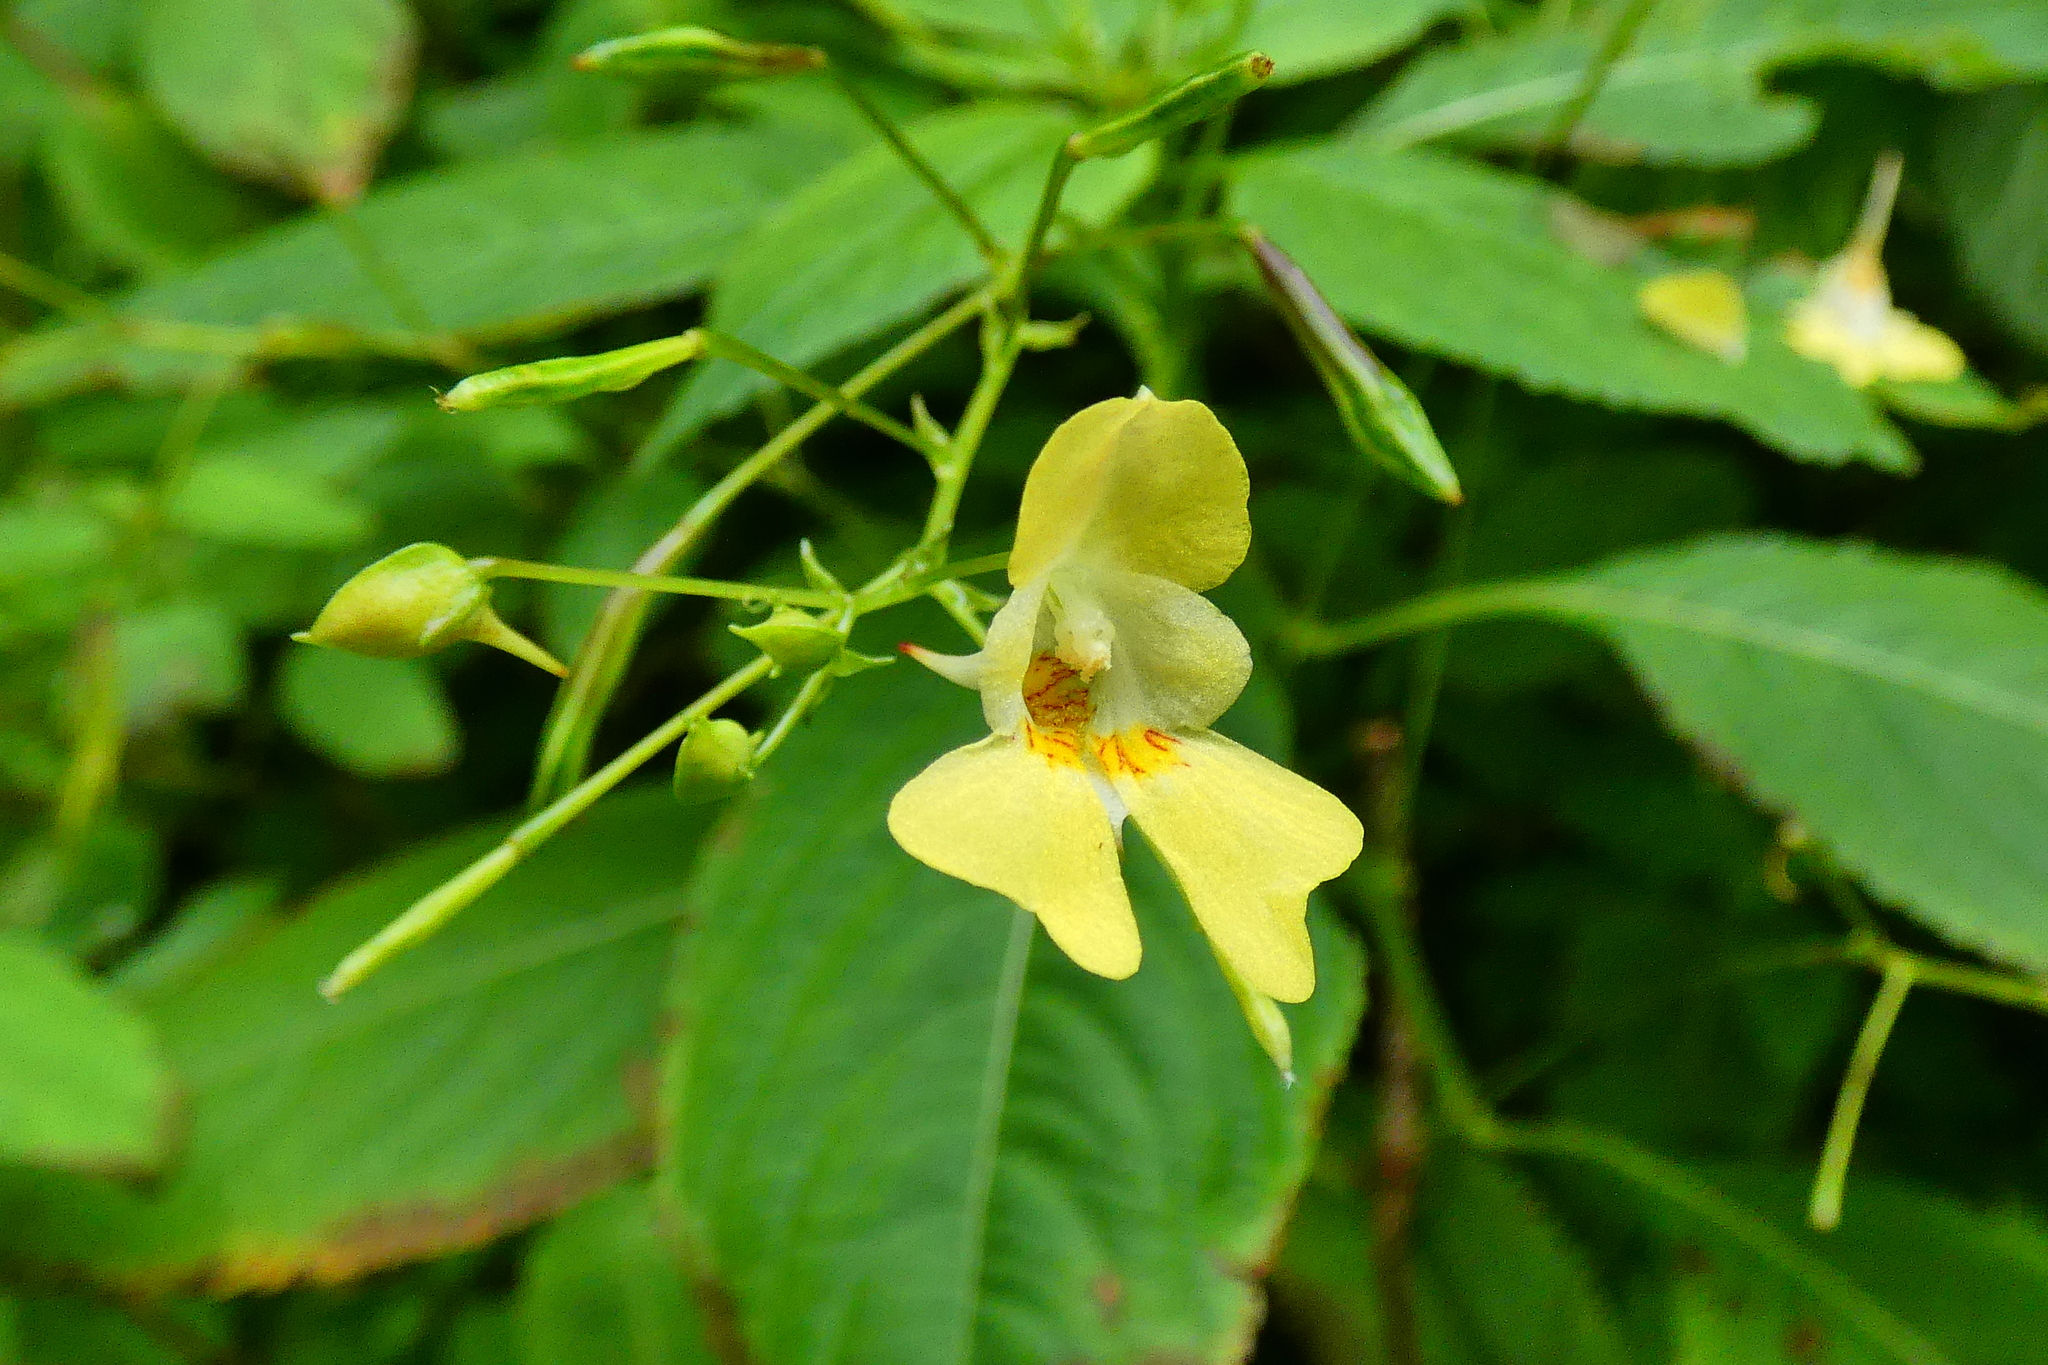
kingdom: Plantae
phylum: Tracheophyta
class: Magnoliopsida
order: Ericales
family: Balsaminaceae
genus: Impatiens
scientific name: Impatiens parviflora
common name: Small balsam
